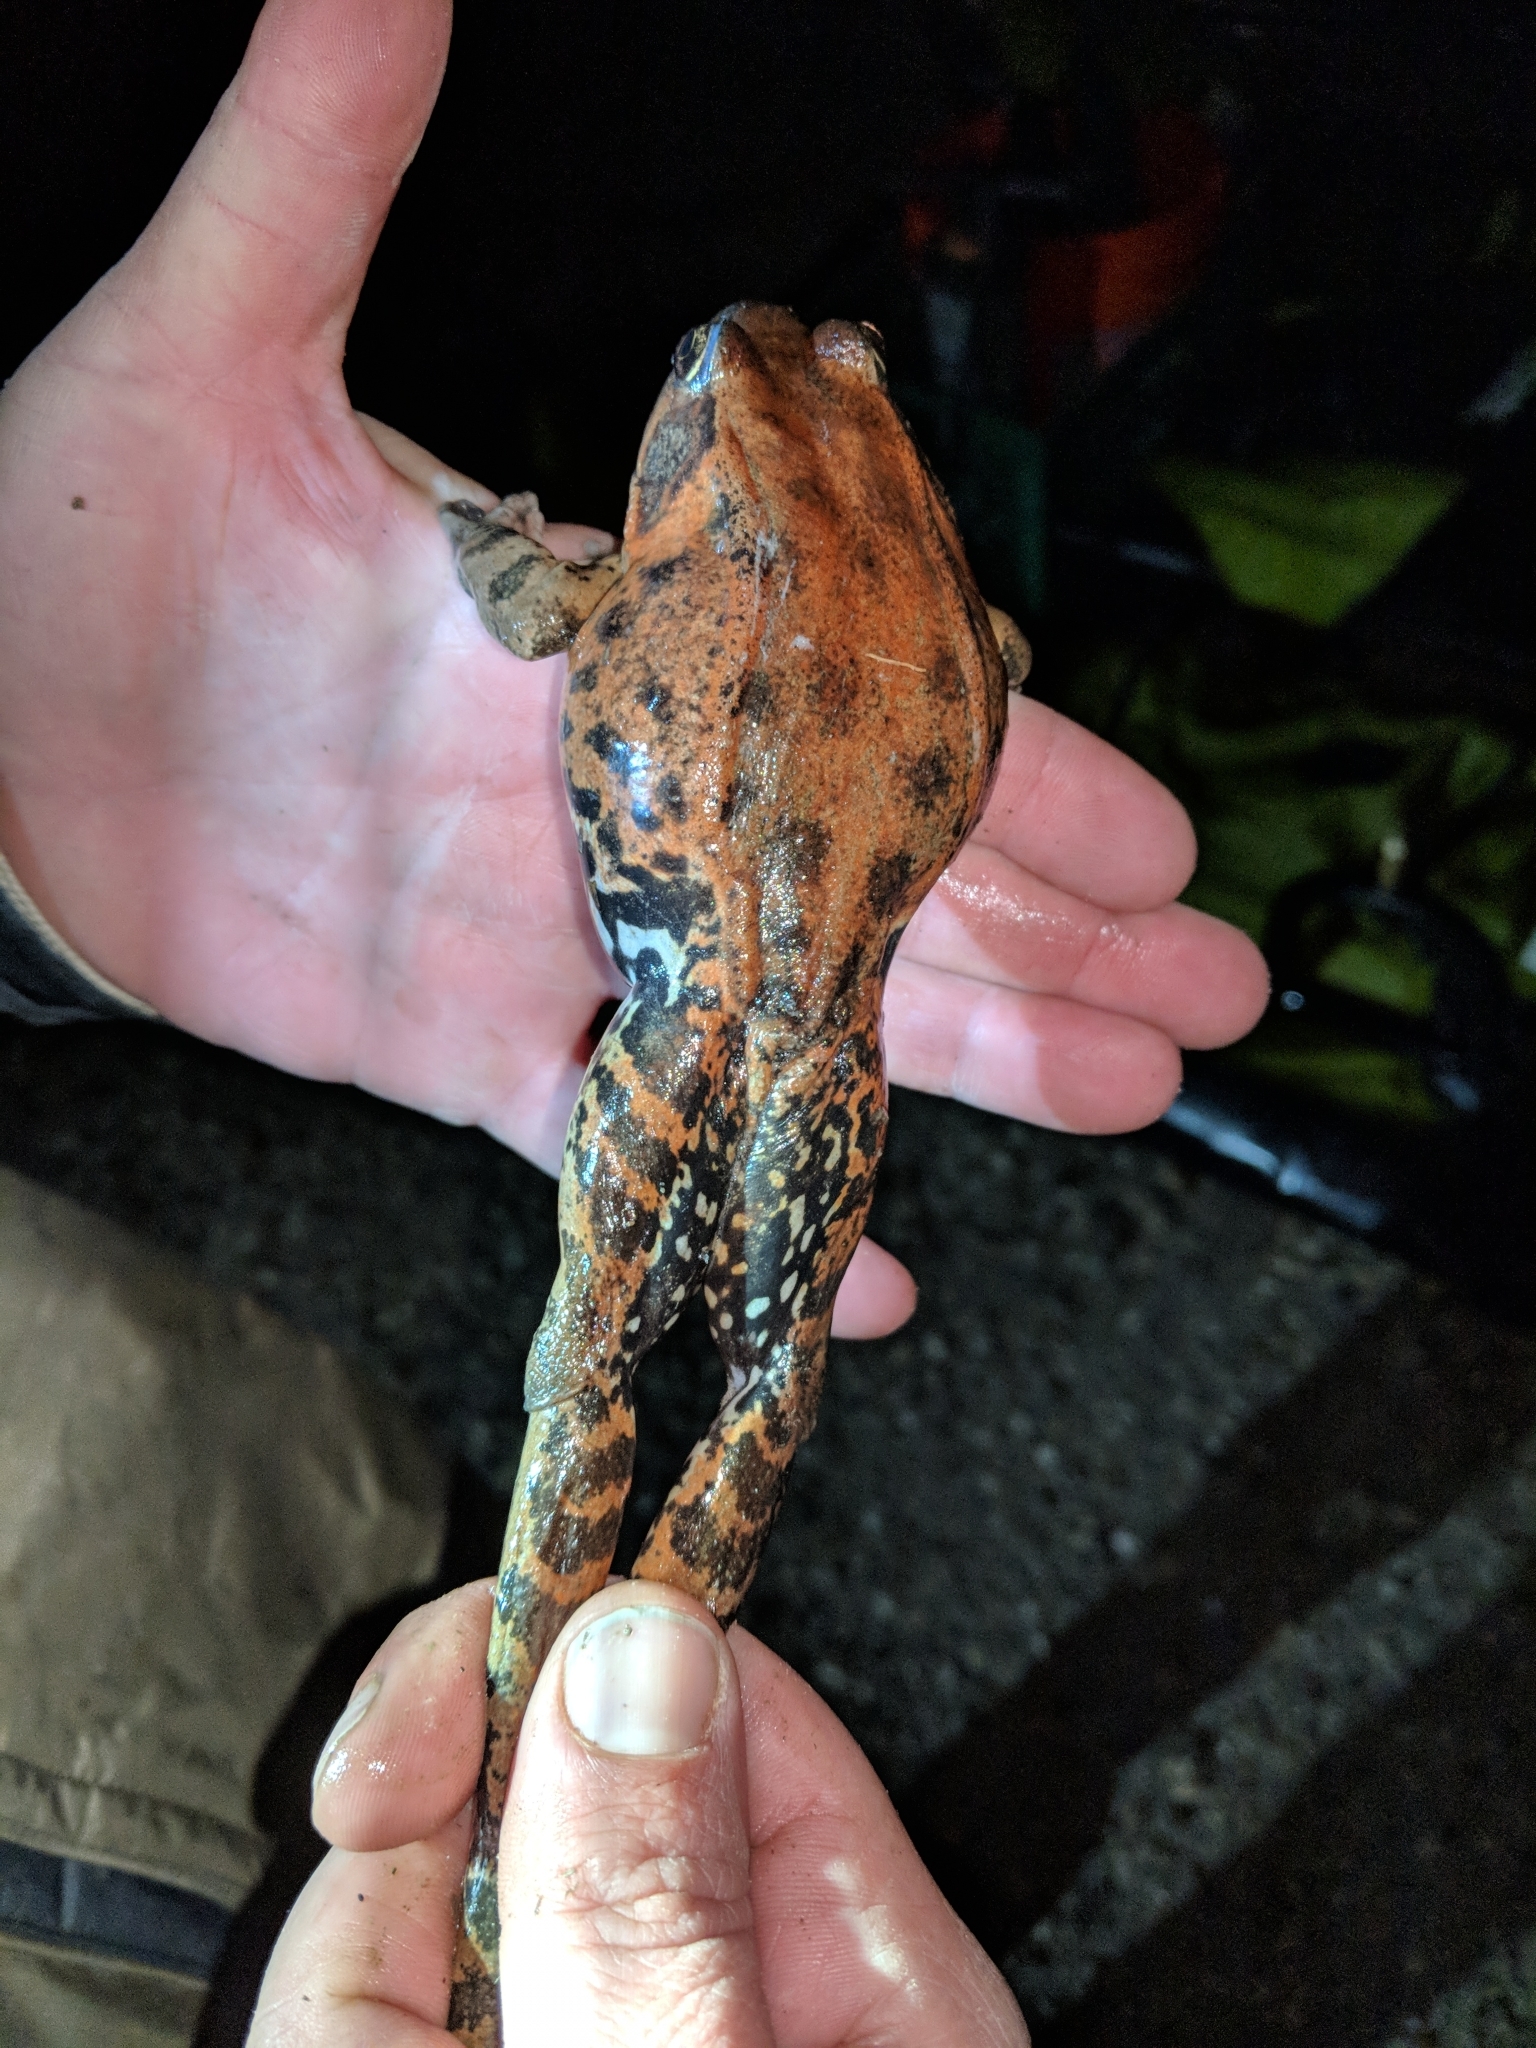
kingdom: Animalia
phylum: Chordata
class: Amphibia
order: Anura
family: Ranidae
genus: Rana
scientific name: Rana draytonii
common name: California red-legged frog
